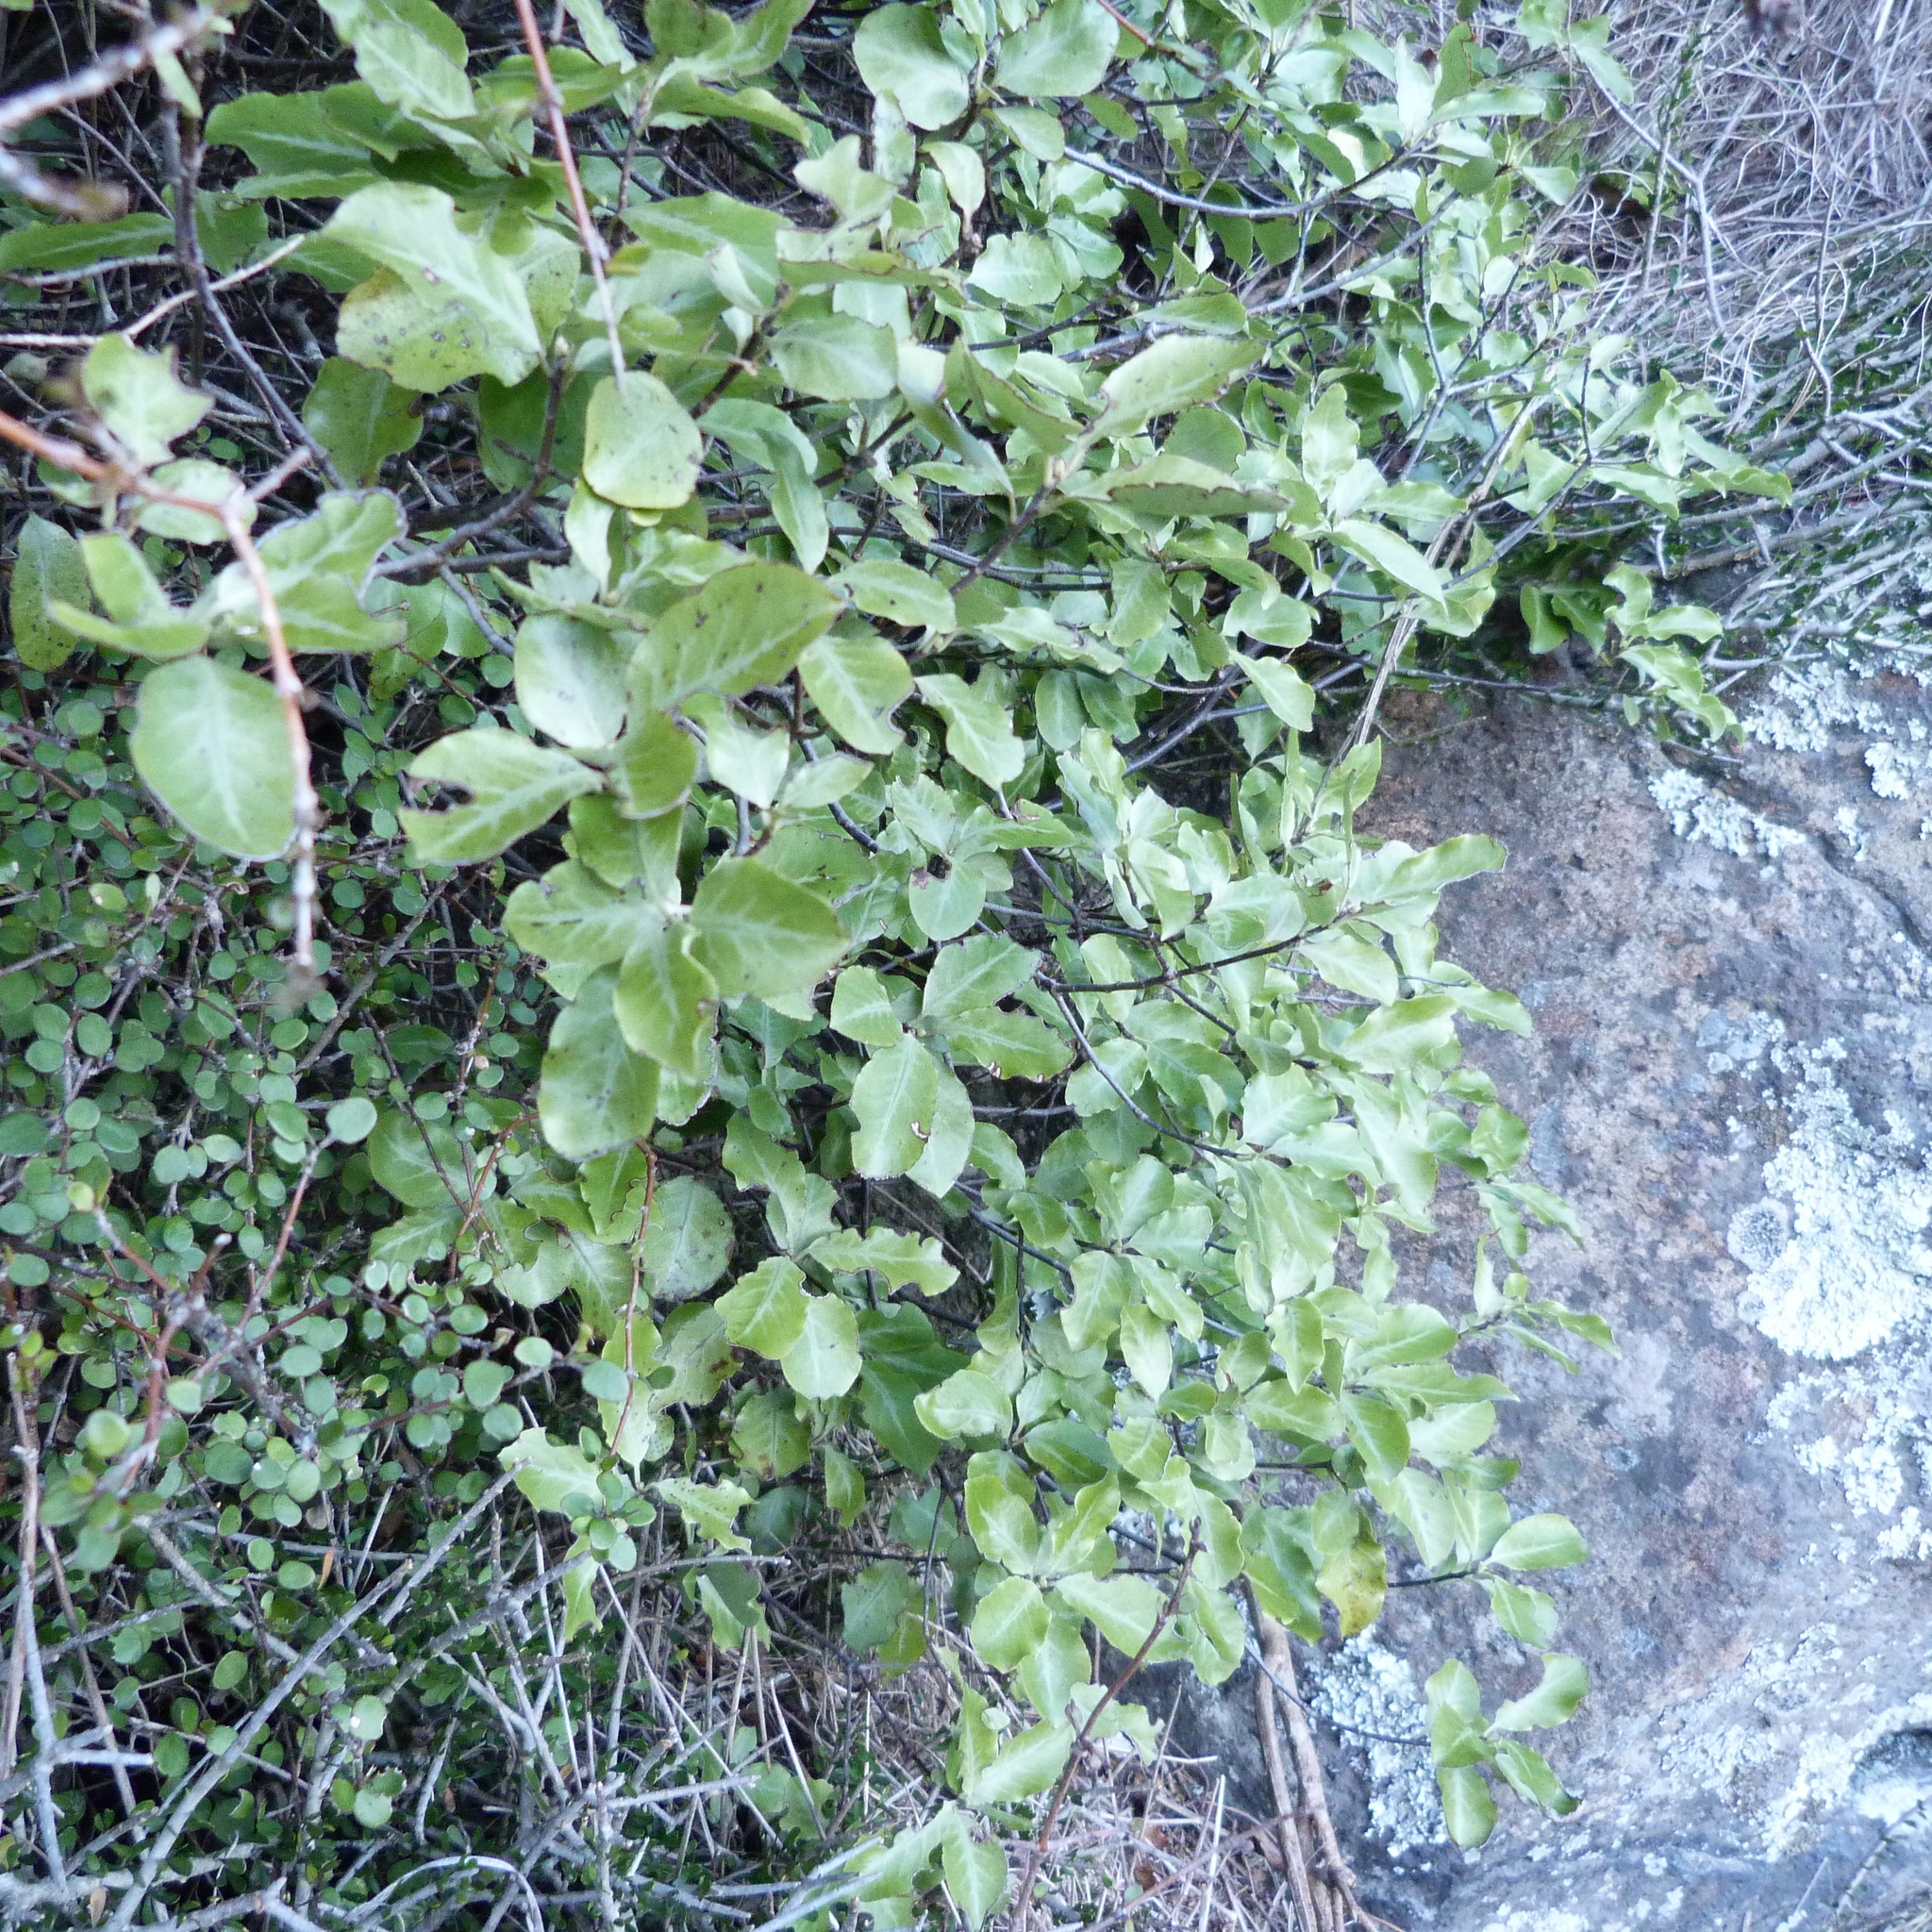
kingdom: Plantae
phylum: Tracheophyta
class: Magnoliopsida
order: Apiales
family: Pittosporaceae
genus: Pittosporum
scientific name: Pittosporum tenuifolium
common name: Kohuhu
